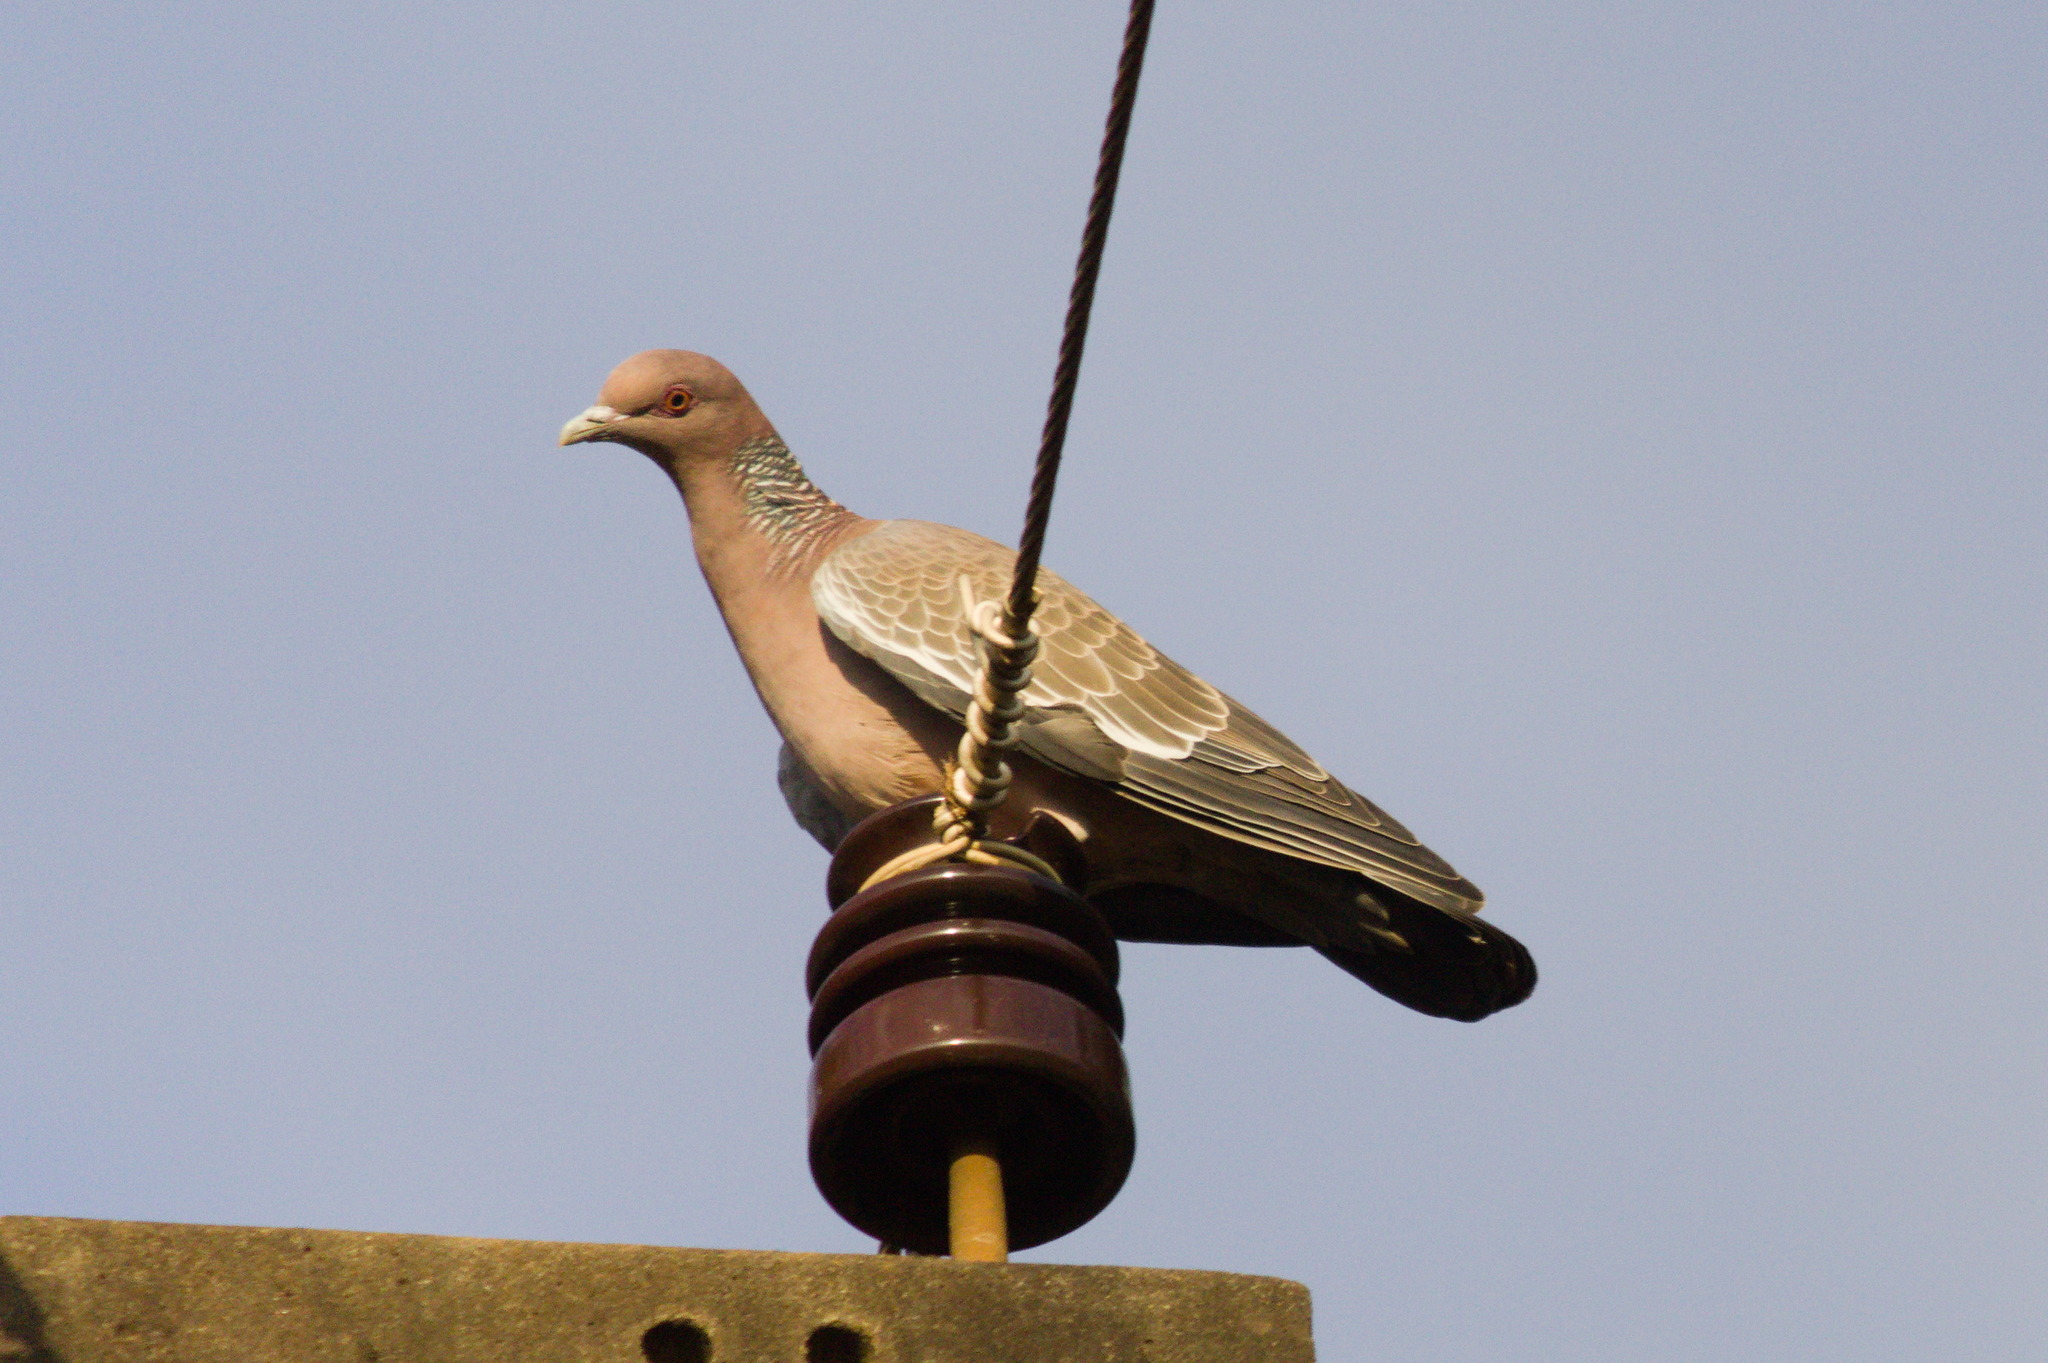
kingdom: Animalia
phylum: Chordata
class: Aves
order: Columbiformes
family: Columbidae
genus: Patagioenas
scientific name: Patagioenas picazuro
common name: Picazuro pigeon
